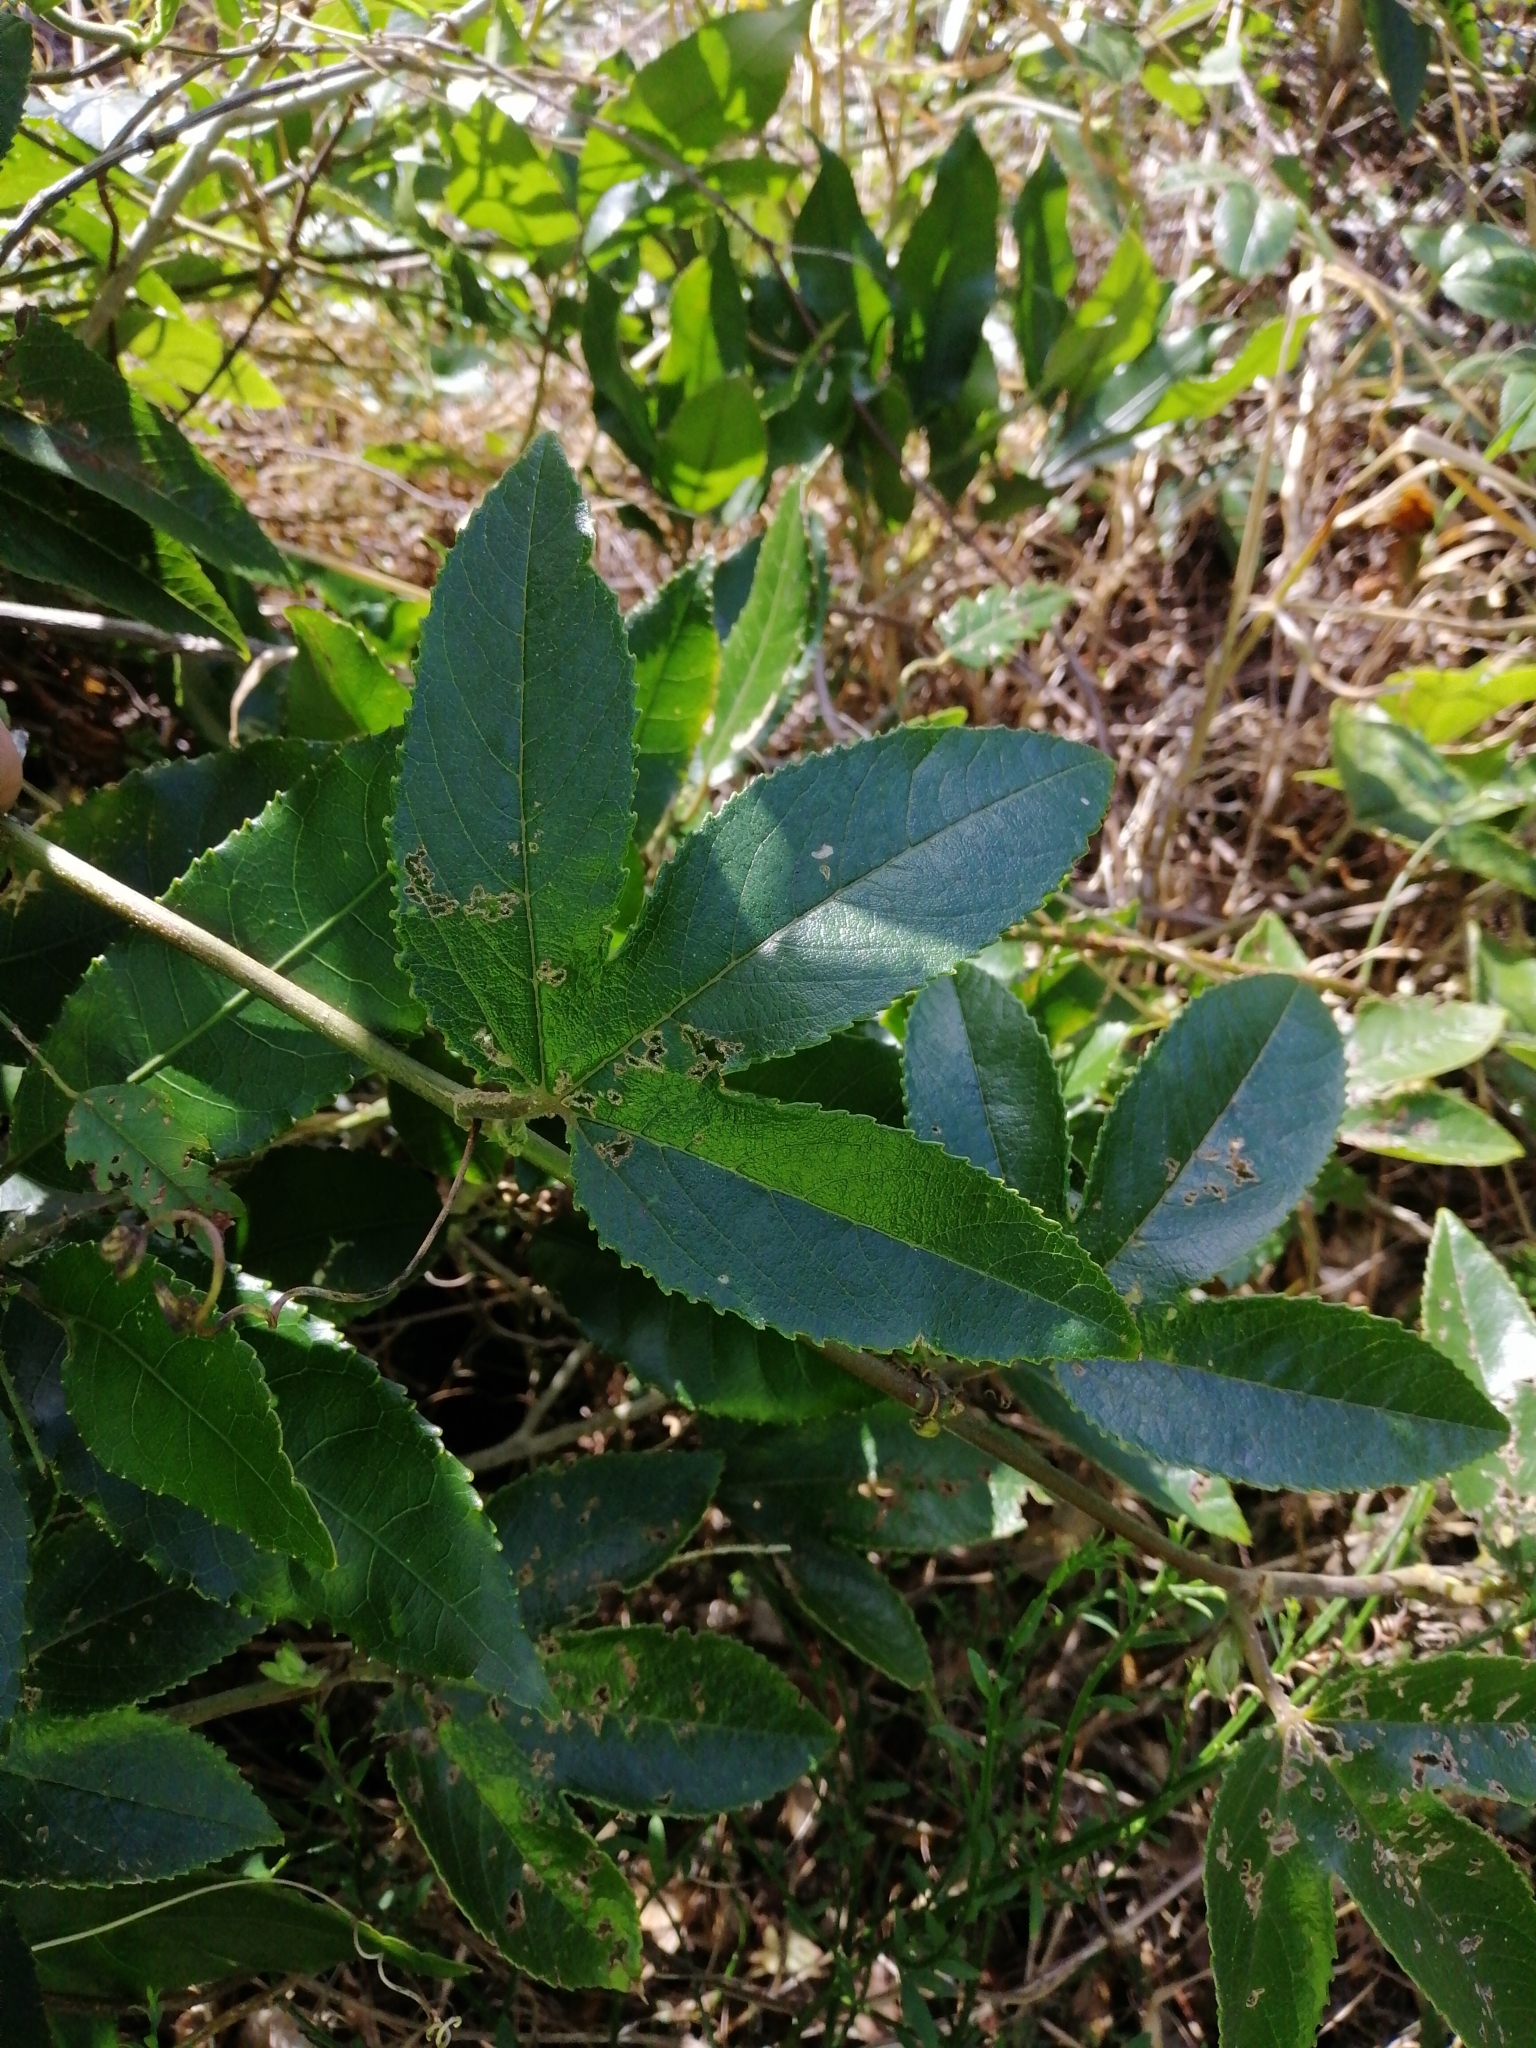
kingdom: Plantae
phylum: Tracheophyta
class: Magnoliopsida
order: Malpighiales
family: Passifloraceae
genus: Passiflora
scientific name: Passiflora tripartita
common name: Banana poka
